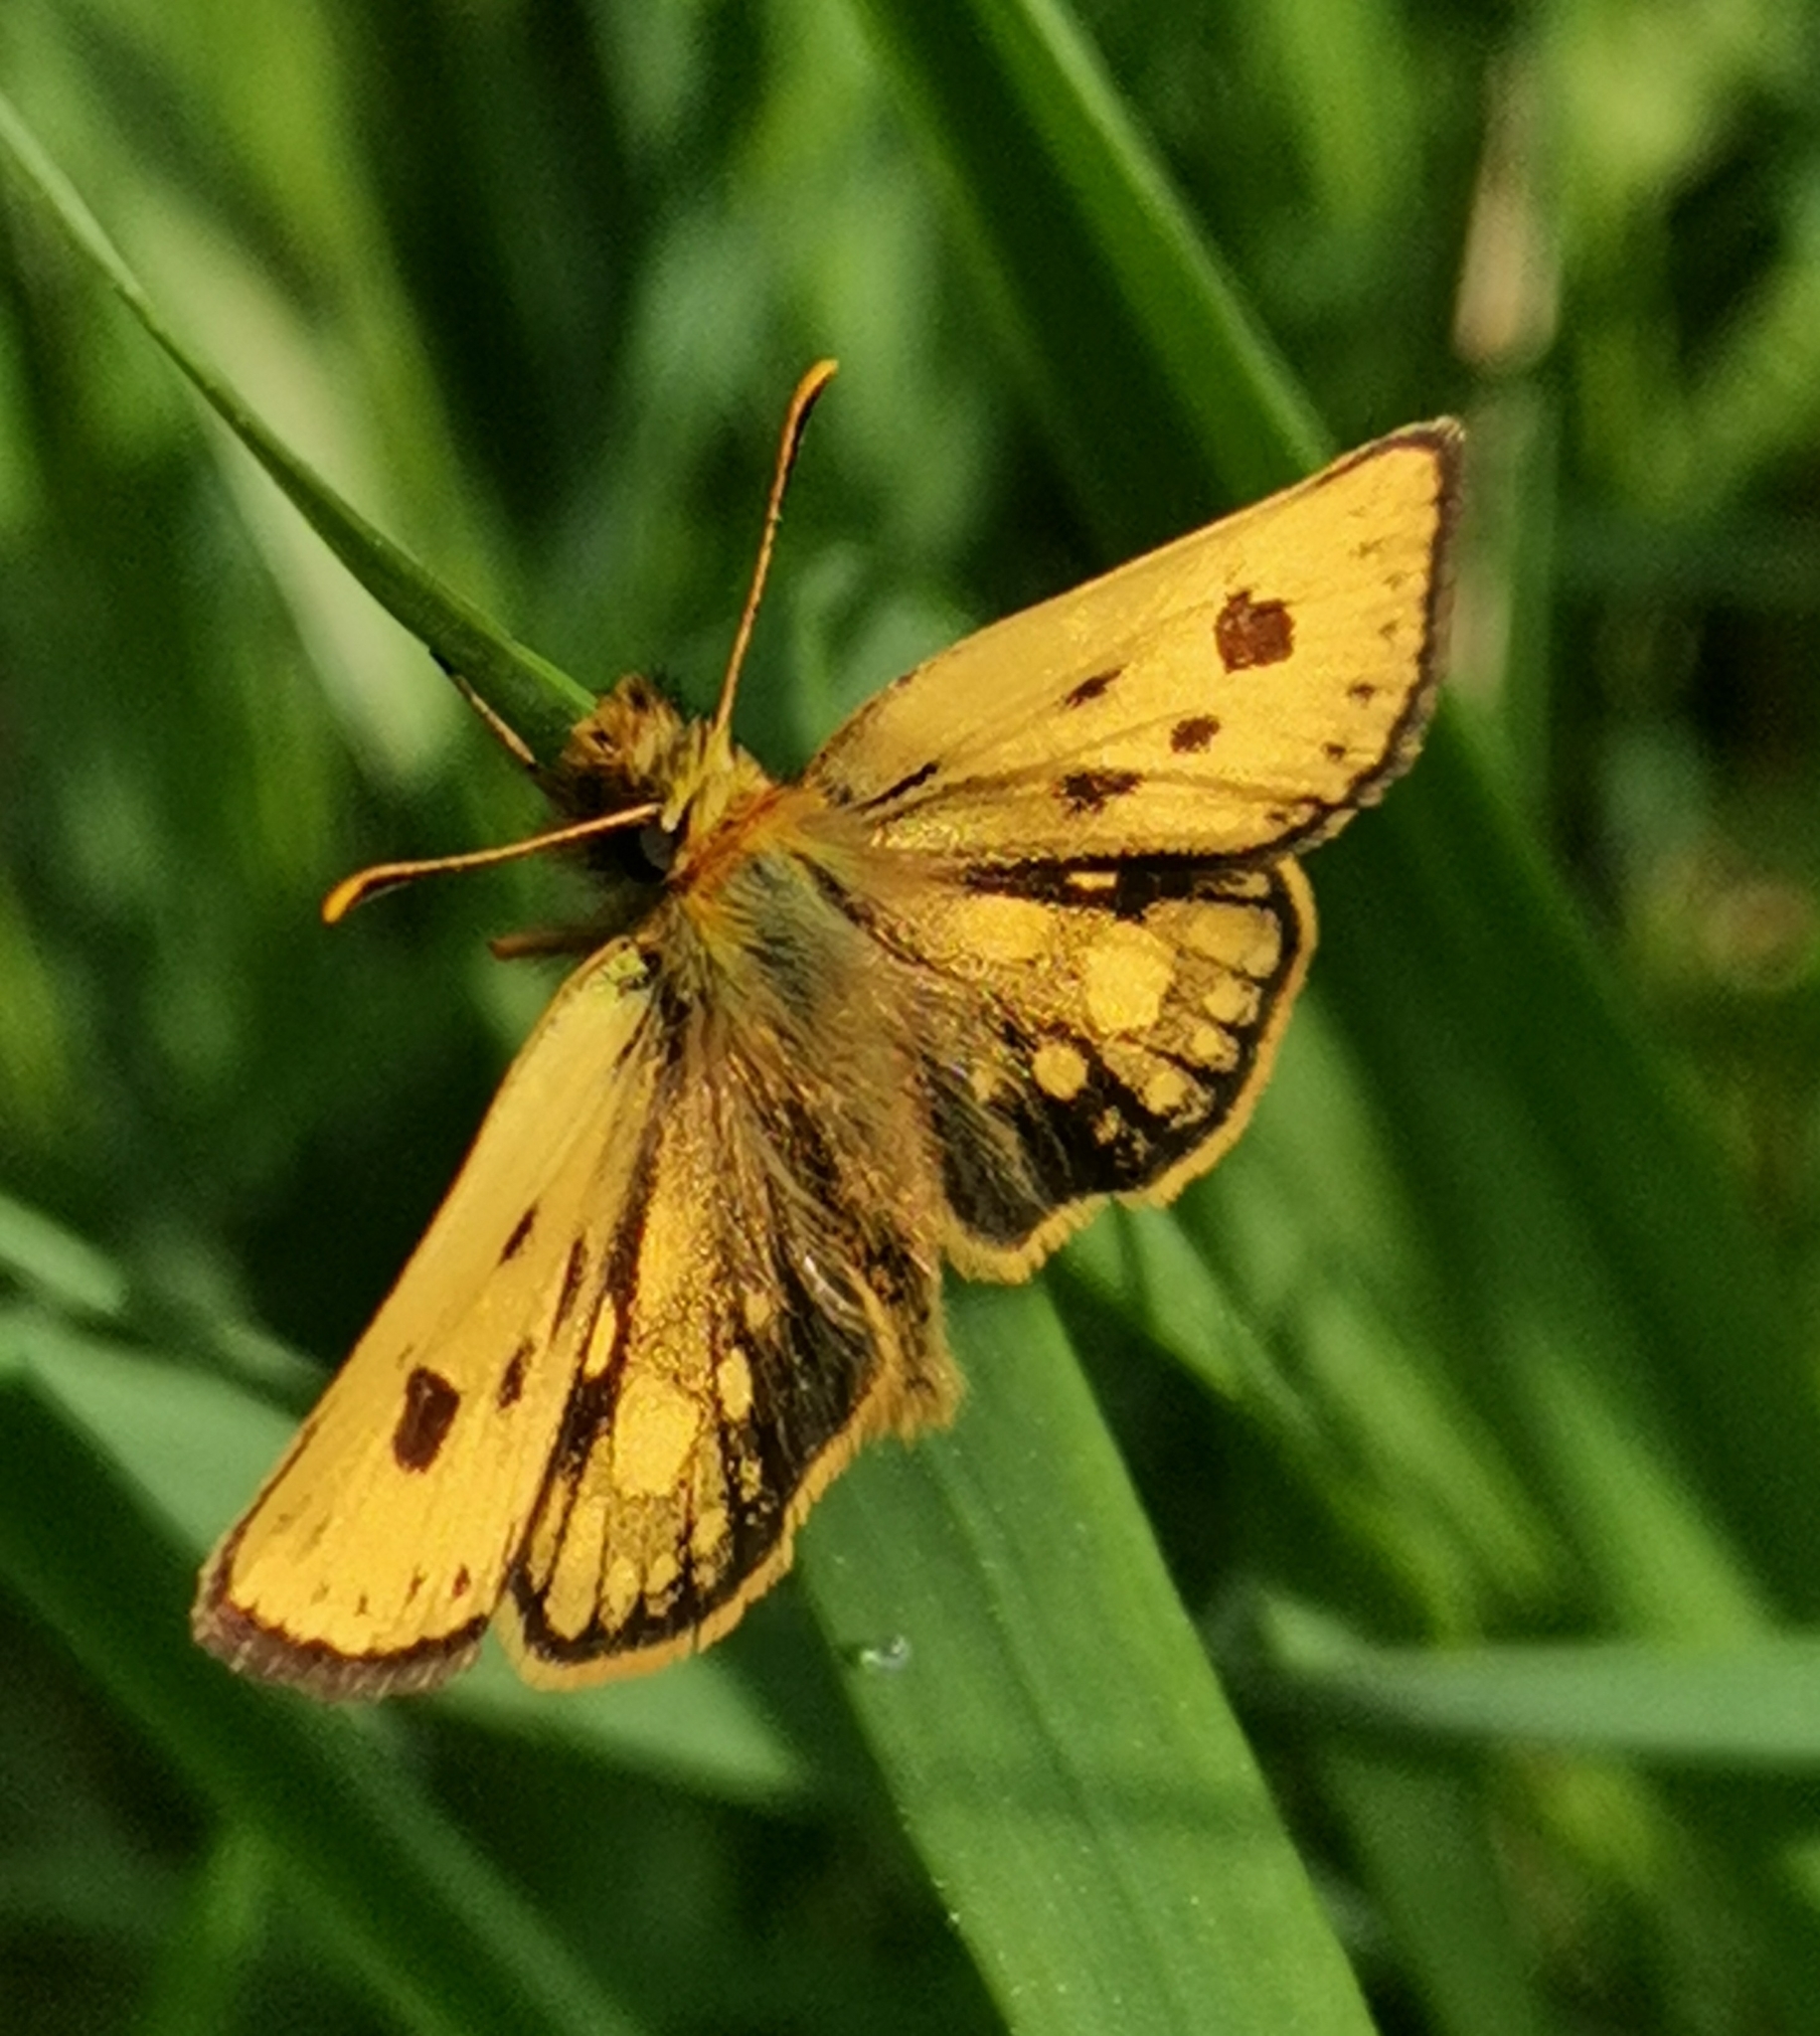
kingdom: Animalia
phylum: Arthropoda
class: Insecta
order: Lepidoptera
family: Hesperiidae
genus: Carterocephalus
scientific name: Carterocephalus silvicola
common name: Northern chequered skipper
